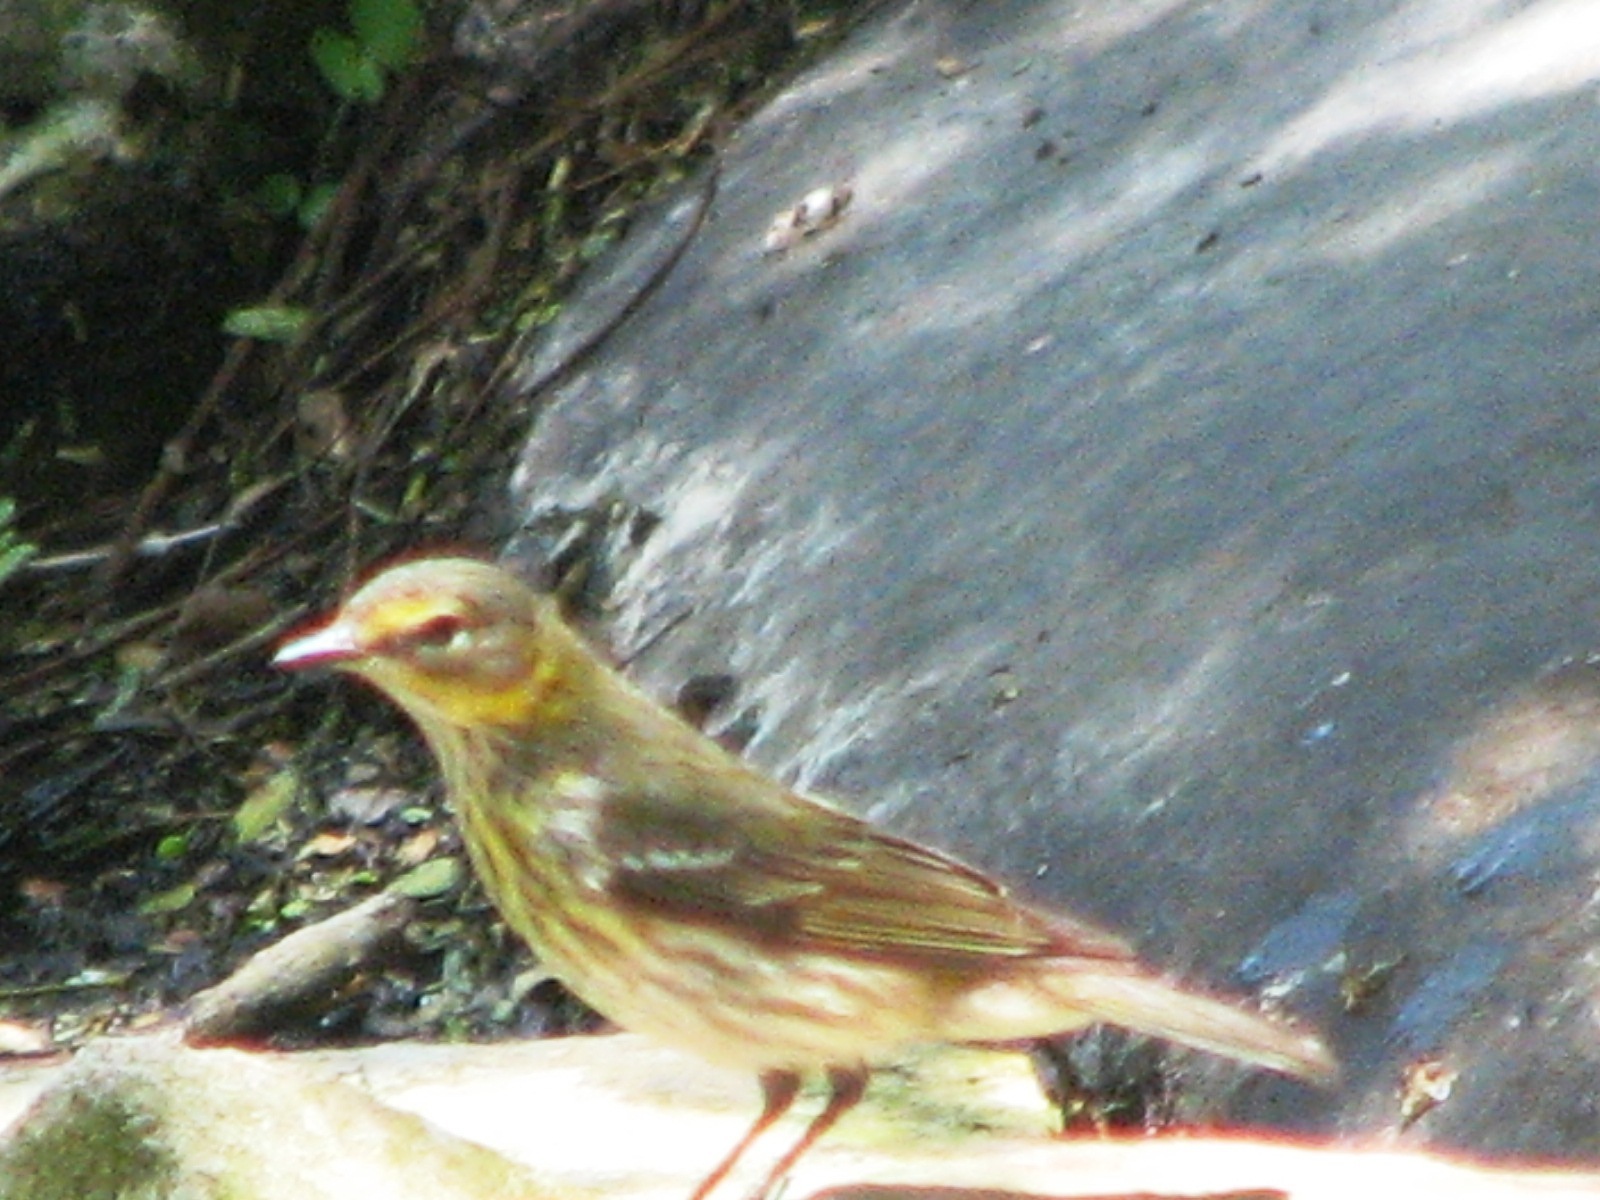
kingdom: Animalia
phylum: Chordata
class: Aves
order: Passeriformes
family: Parulidae
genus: Setophaga
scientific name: Setophaga tigrina
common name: Cape may warbler
